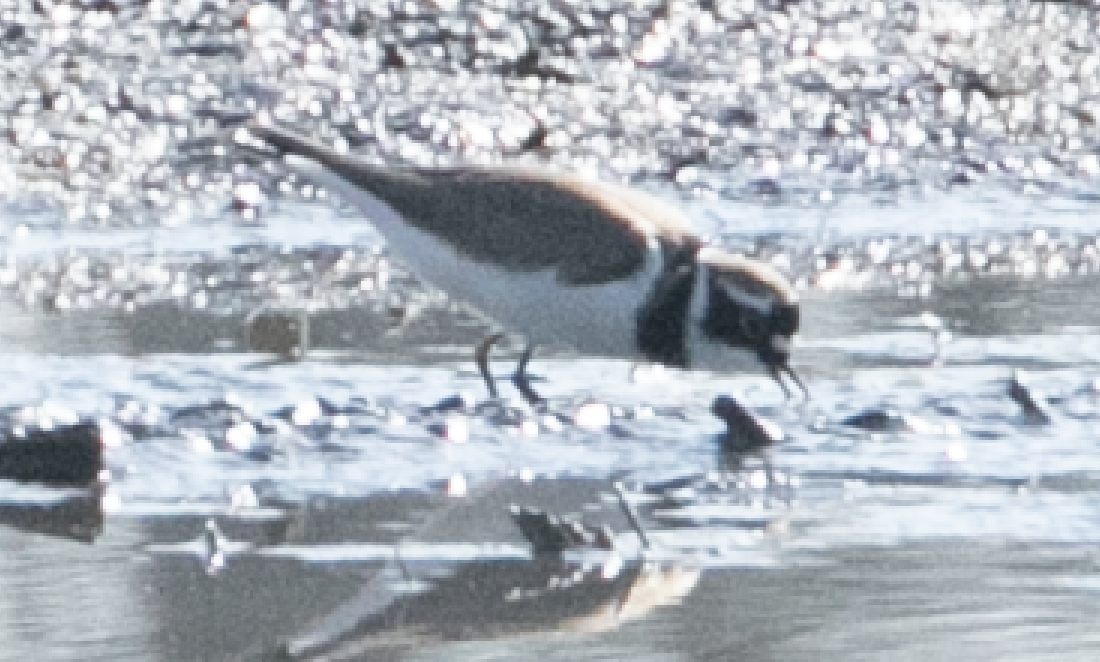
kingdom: Animalia
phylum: Chordata
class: Aves
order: Charadriiformes
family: Charadriidae
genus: Charadrius
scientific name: Charadrius dubius
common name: Little ringed plover
